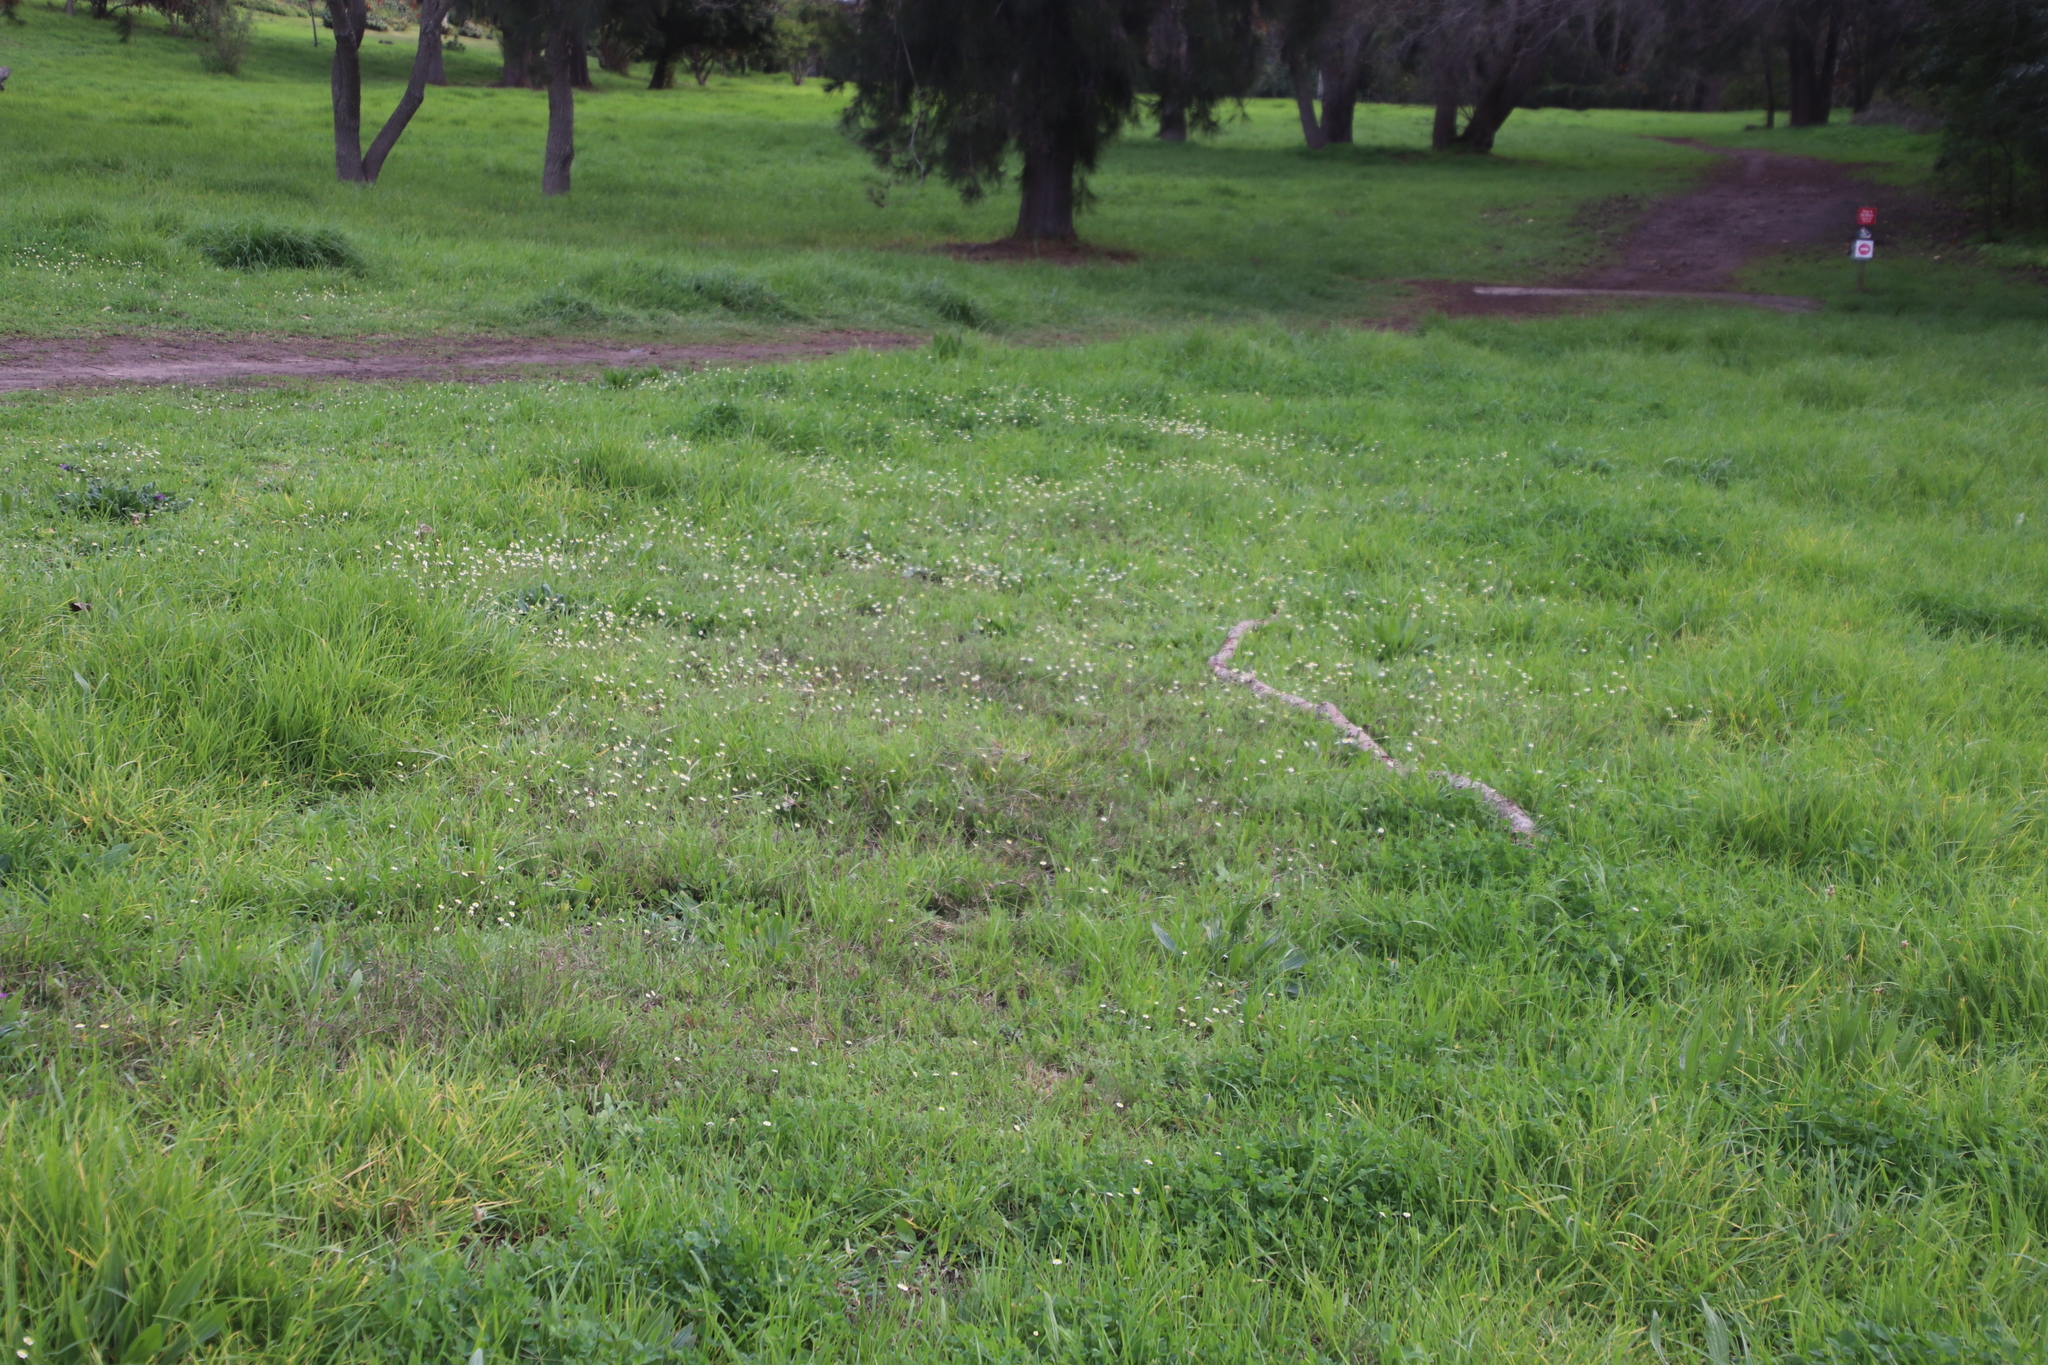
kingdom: Plantae
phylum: Tracheophyta
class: Magnoliopsida
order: Asterales
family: Asteraceae
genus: Cotula
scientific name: Cotula turbinata
